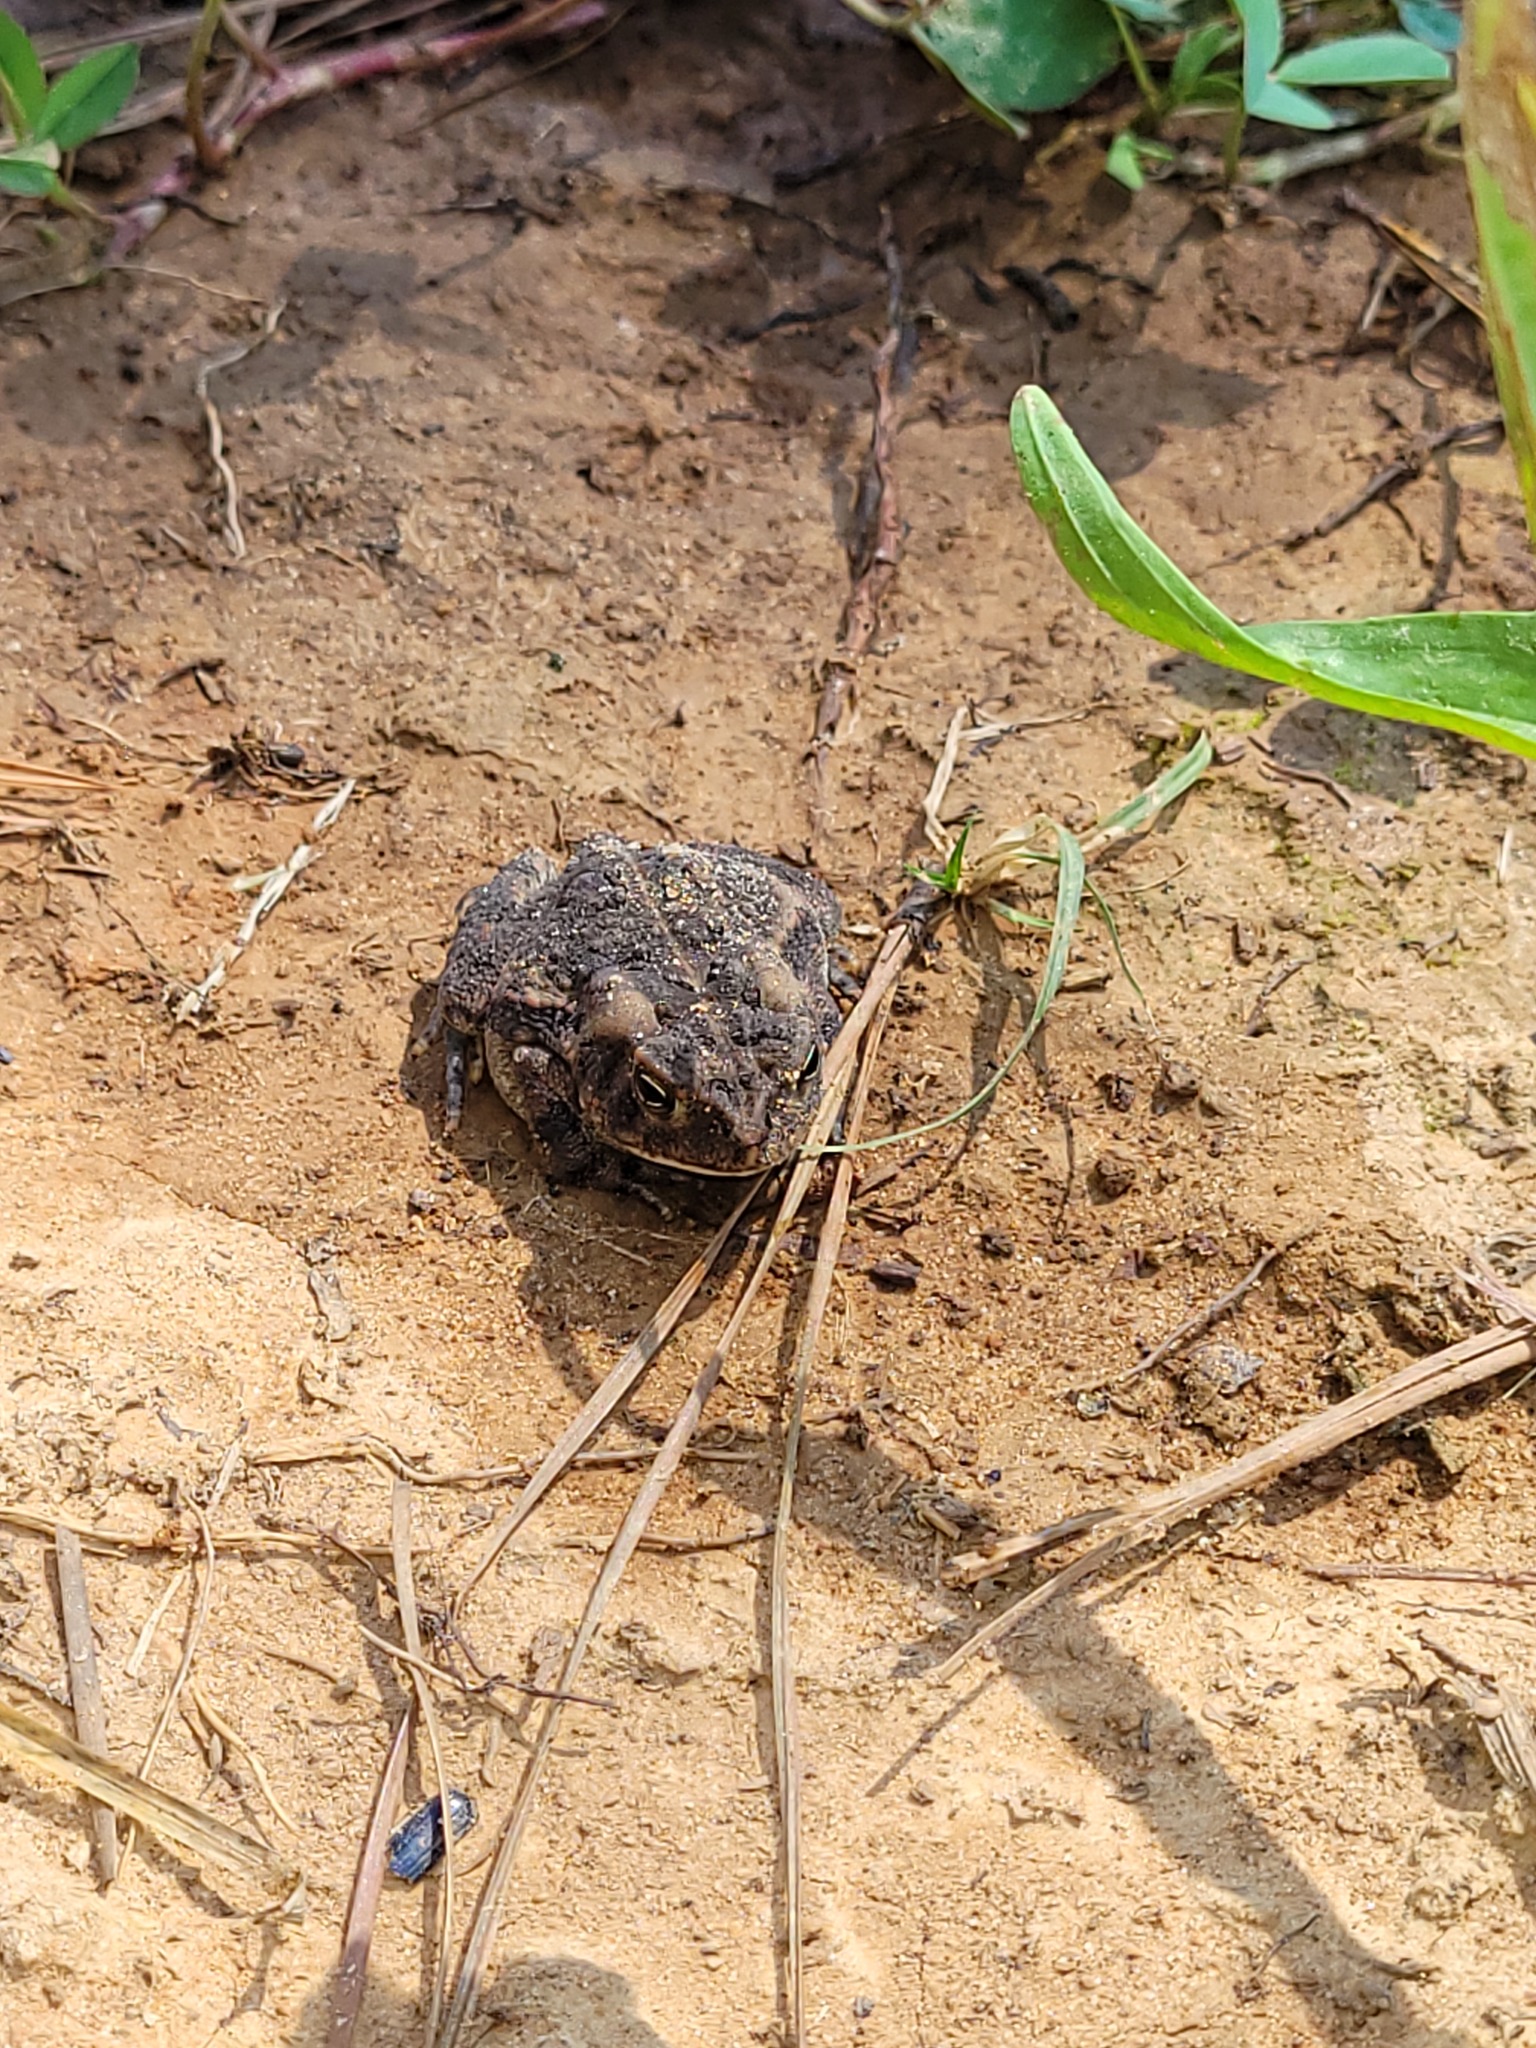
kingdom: Animalia
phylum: Chordata
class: Amphibia
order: Anura
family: Bufonidae
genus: Anaxyrus
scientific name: Anaxyrus fowleri
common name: Fowler's toad
